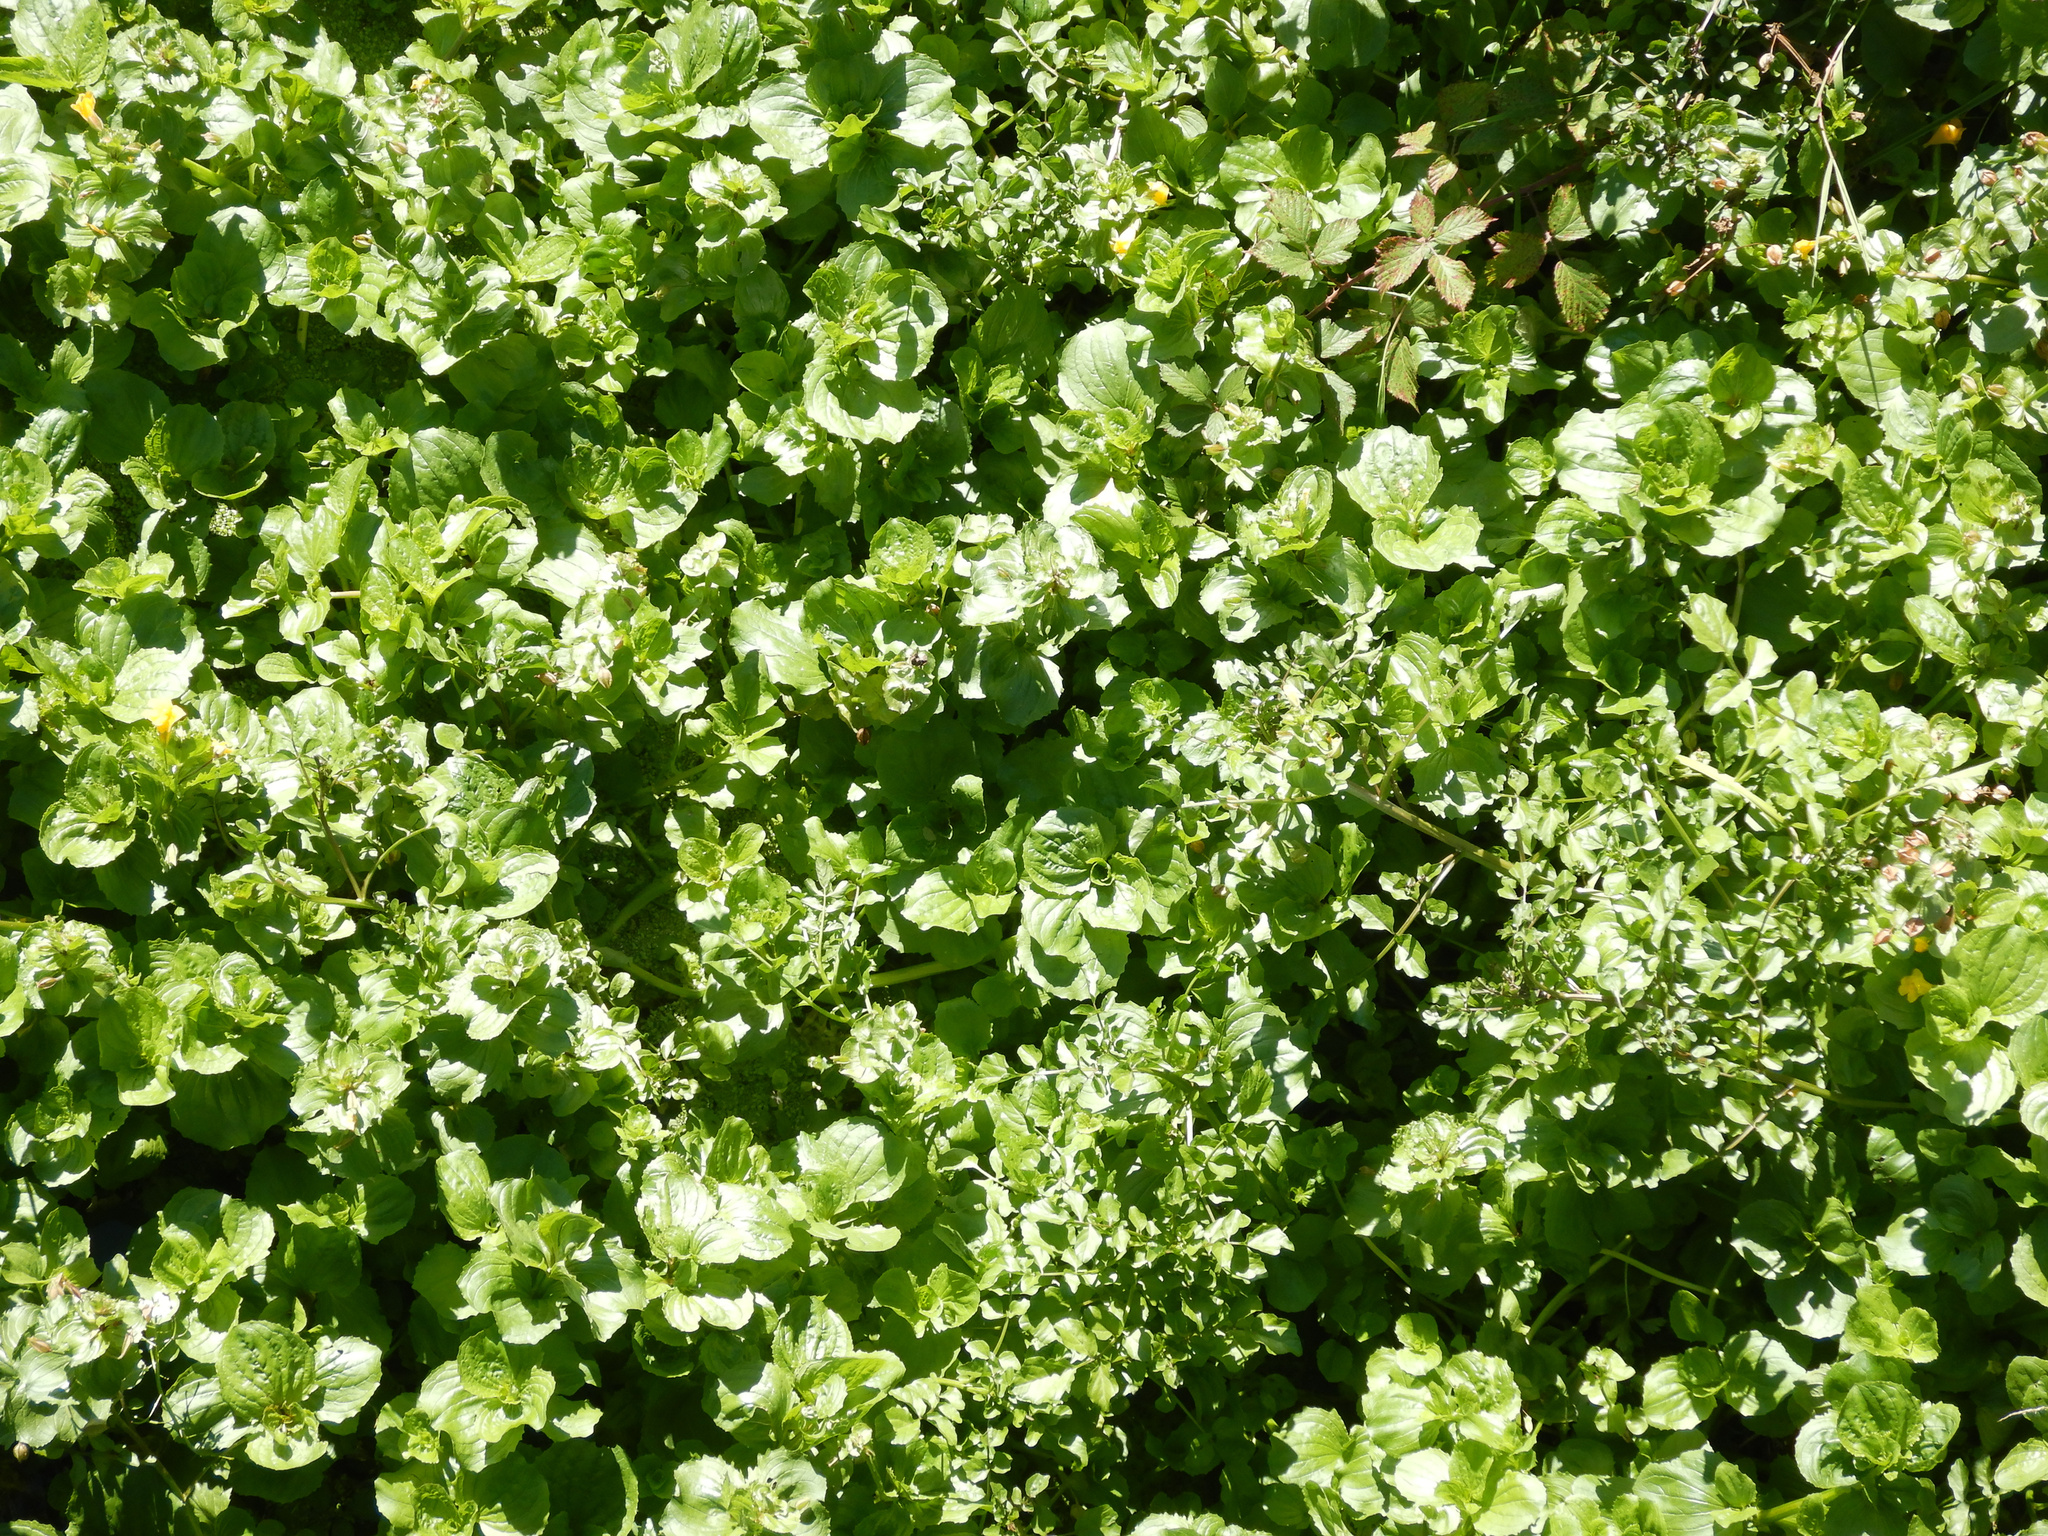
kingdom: Plantae
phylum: Tracheophyta
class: Magnoliopsida
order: Lamiales
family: Phrymaceae
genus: Erythranthe
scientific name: Erythranthe guttata
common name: Monkeyflower
